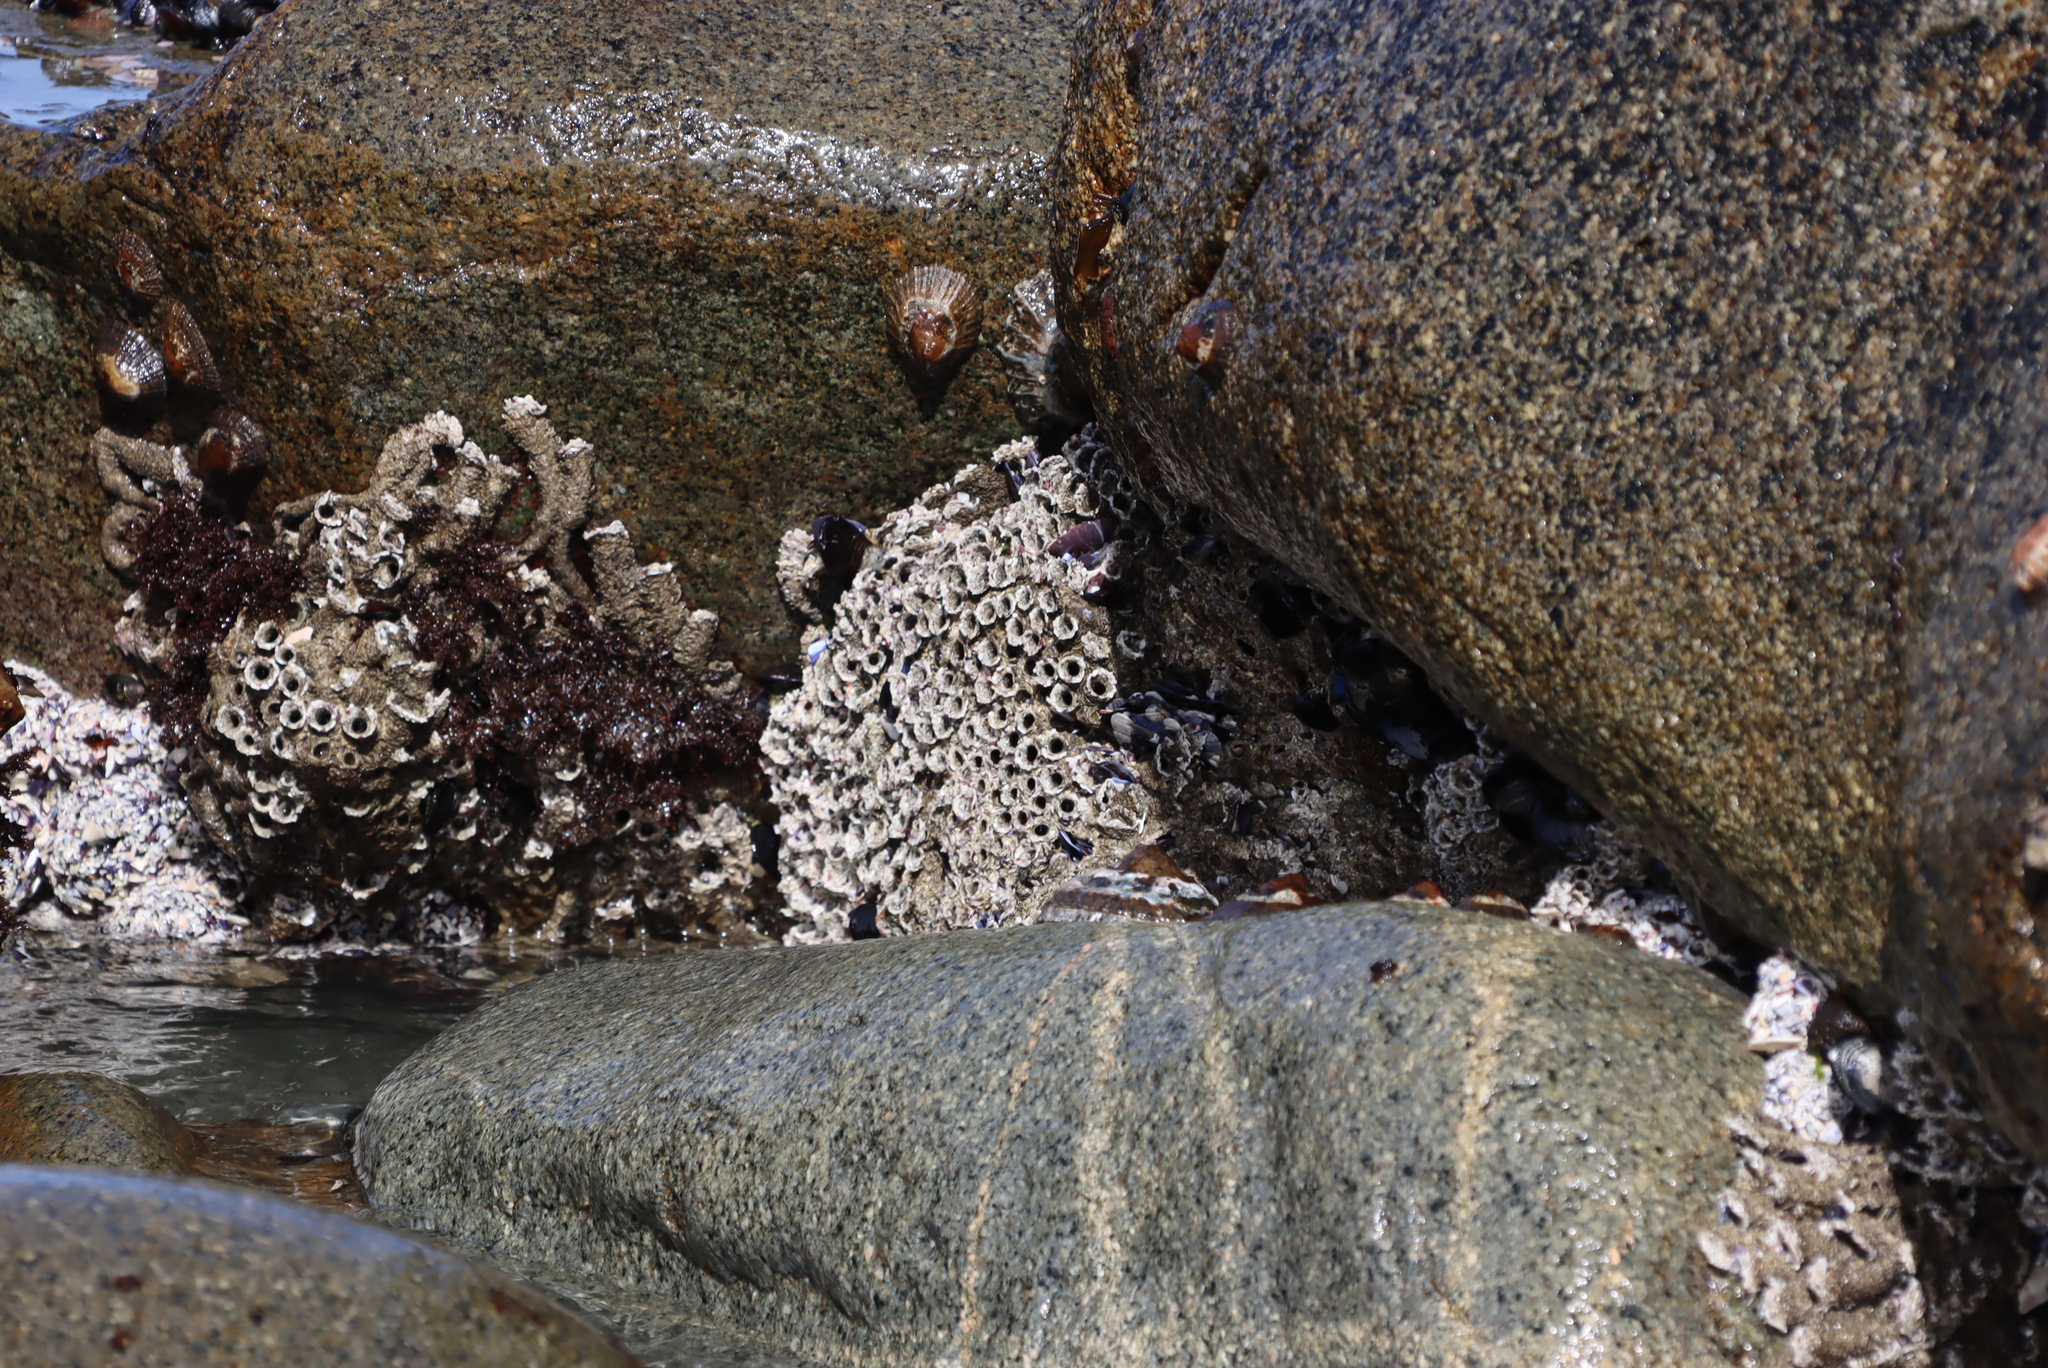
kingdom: Animalia
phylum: Annelida
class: Polychaeta
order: Sabellida
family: Sabellariidae
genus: Gunnarea
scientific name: Gunnarea gaimardi
